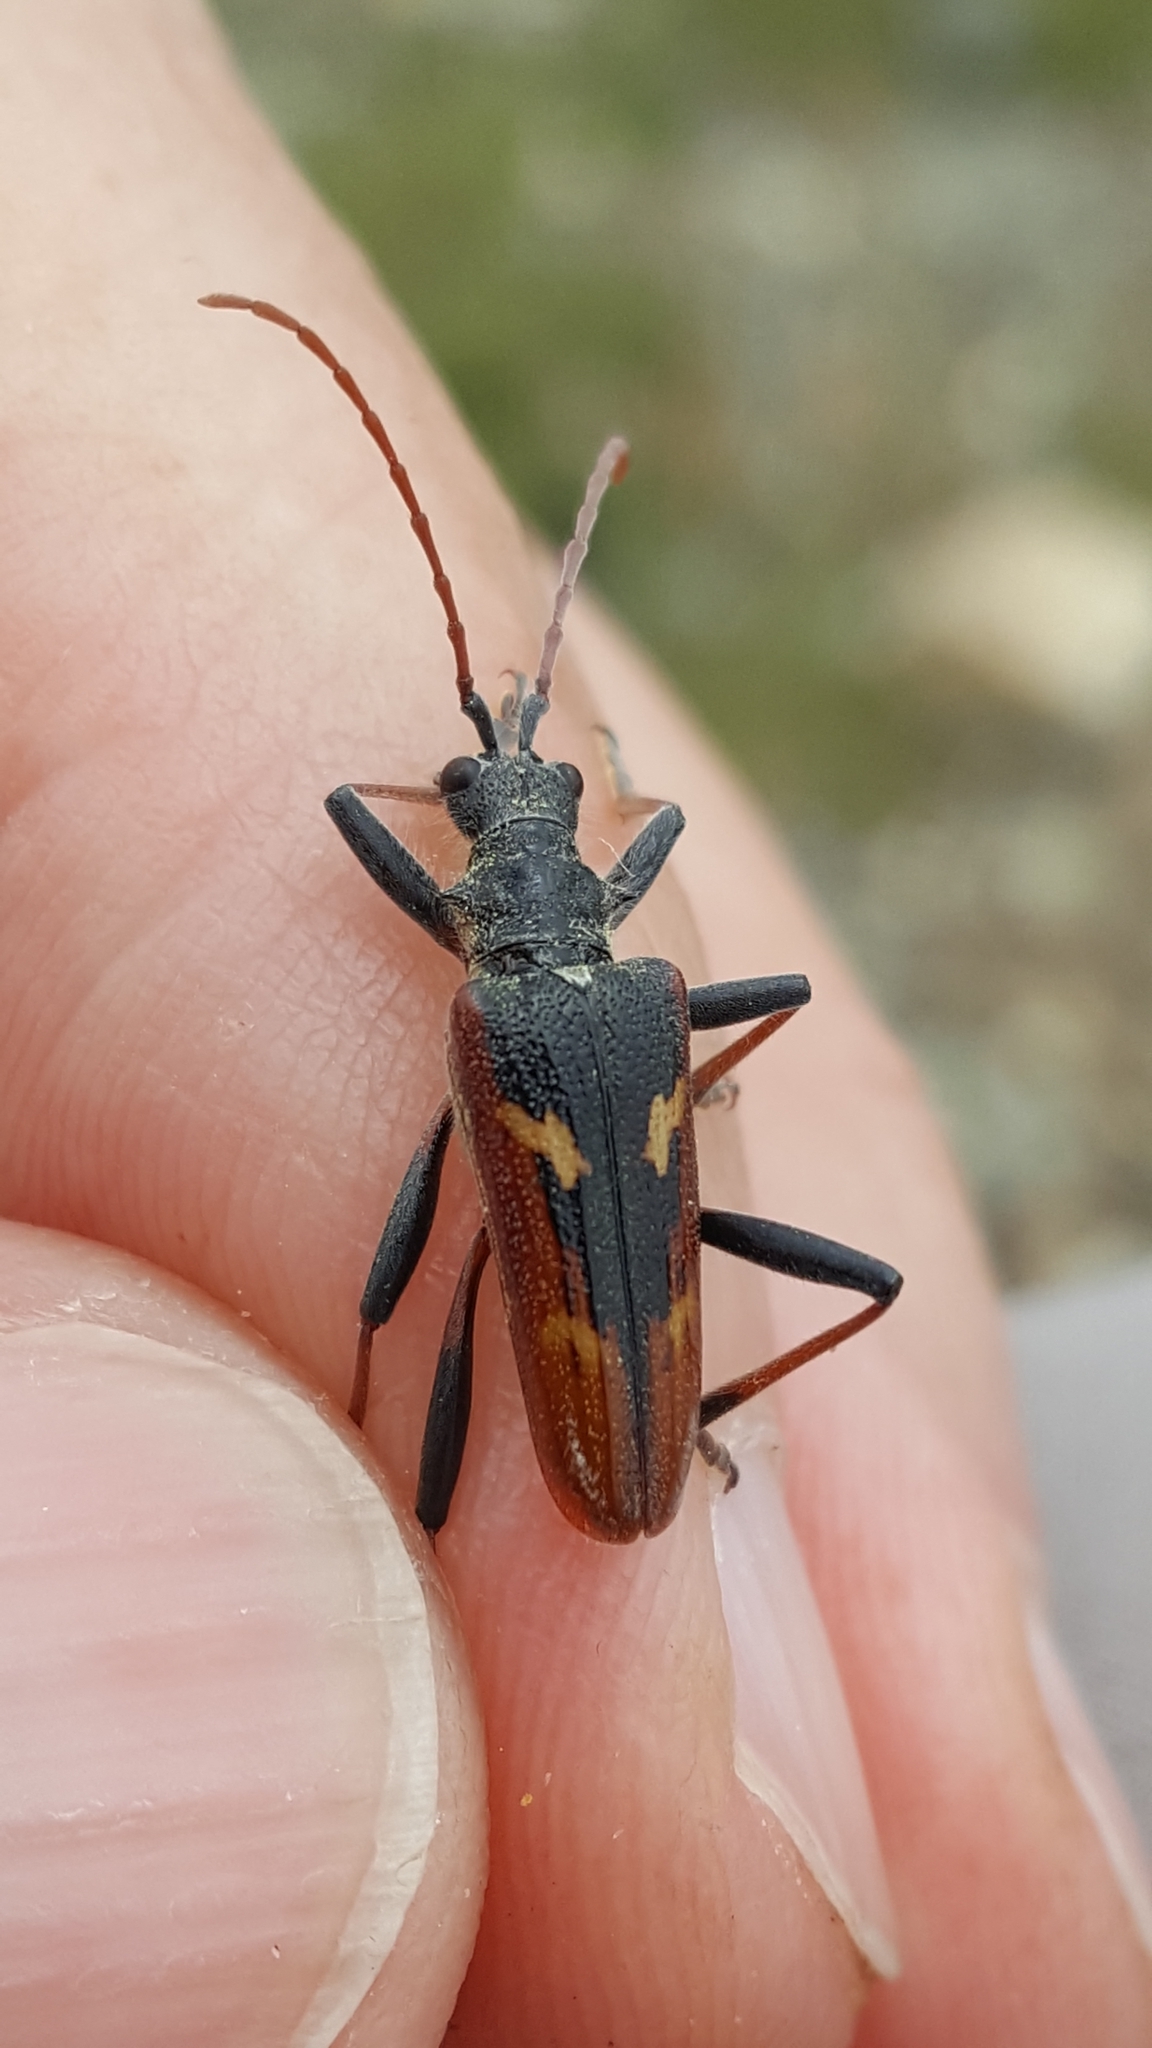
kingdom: Animalia
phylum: Arthropoda
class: Insecta
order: Coleoptera
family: Cerambycidae
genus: Rhagium
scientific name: Rhagium bifasciatum
